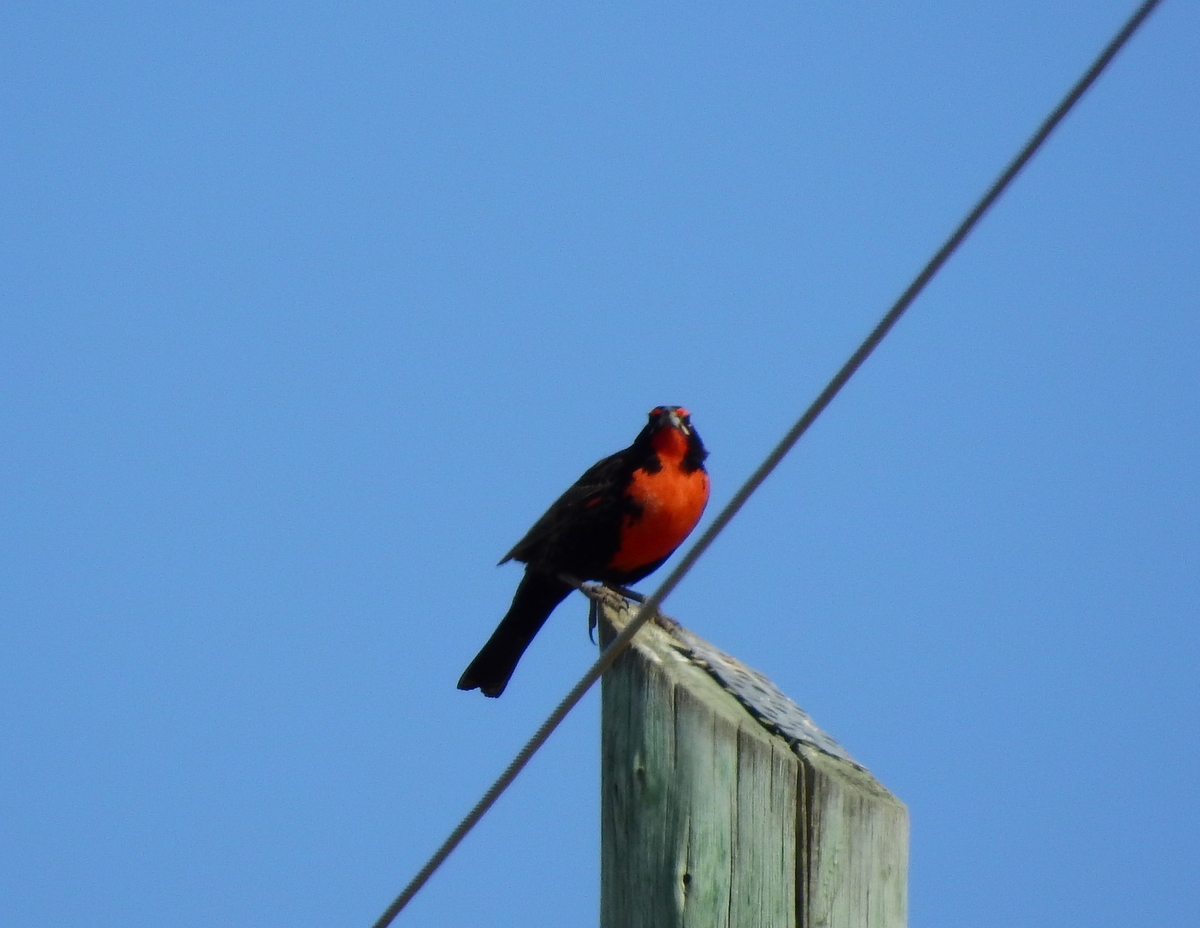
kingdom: Animalia
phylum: Chordata
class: Aves
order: Passeriformes
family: Icteridae
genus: Sturnella
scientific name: Sturnella loyca
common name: Long-tailed meadowlark
